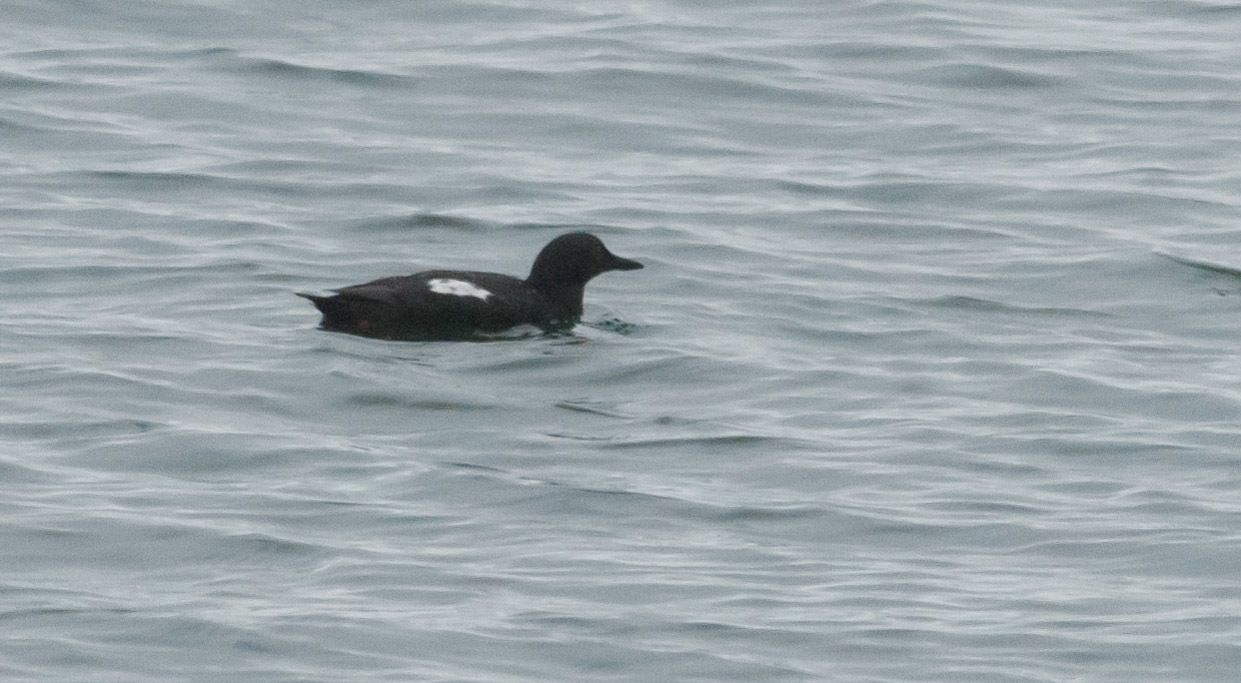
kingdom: Animalia
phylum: Chordata
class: Aves
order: Charadriiformes
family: Alcidae
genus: Cepphus
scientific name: Cepphus columba
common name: Pigeon guillemot
